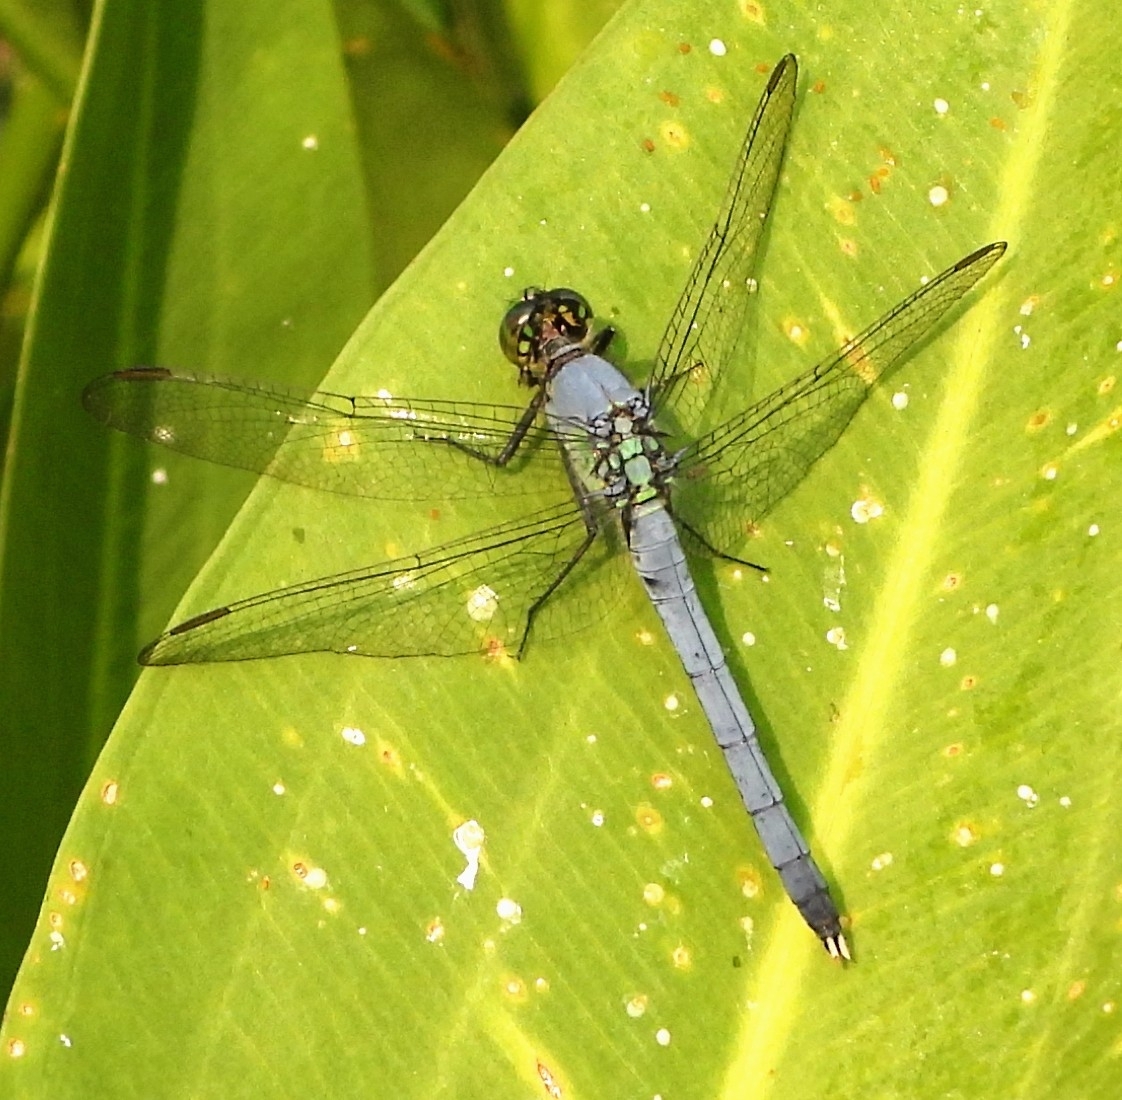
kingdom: Animalia
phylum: Arthropoda
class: Insecta
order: Odonata
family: Libellulidae
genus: Erythemis
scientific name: Erythemis simplicicollis
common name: Eastern pondhawk
